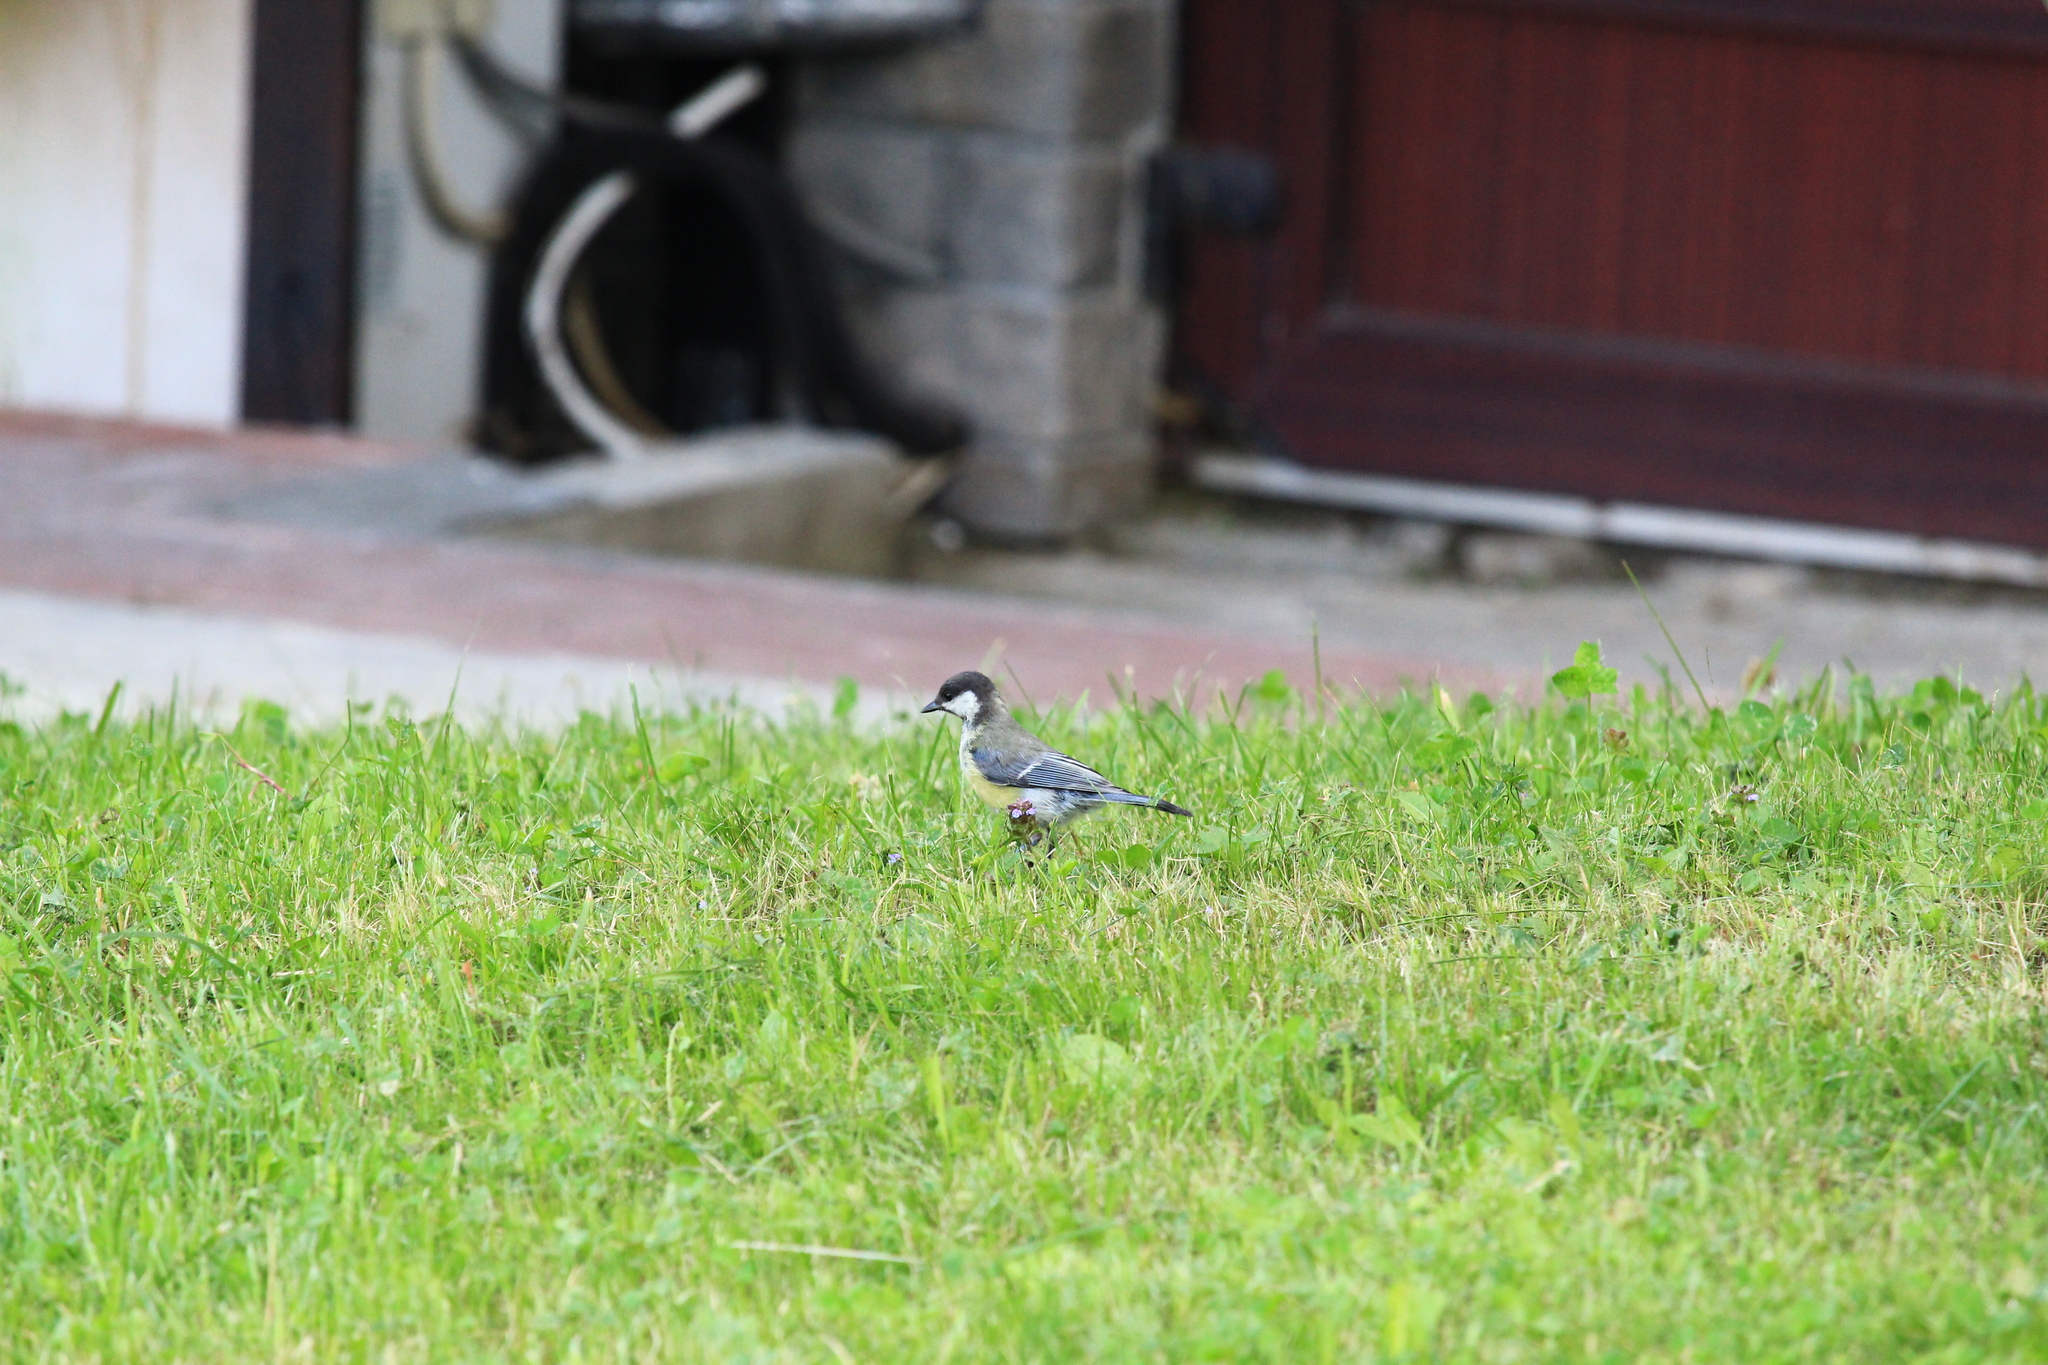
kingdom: Animalia
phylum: Chordata
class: Aves
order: Passeriformes
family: Paridae
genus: Parus
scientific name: Parus major
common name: Great tit
